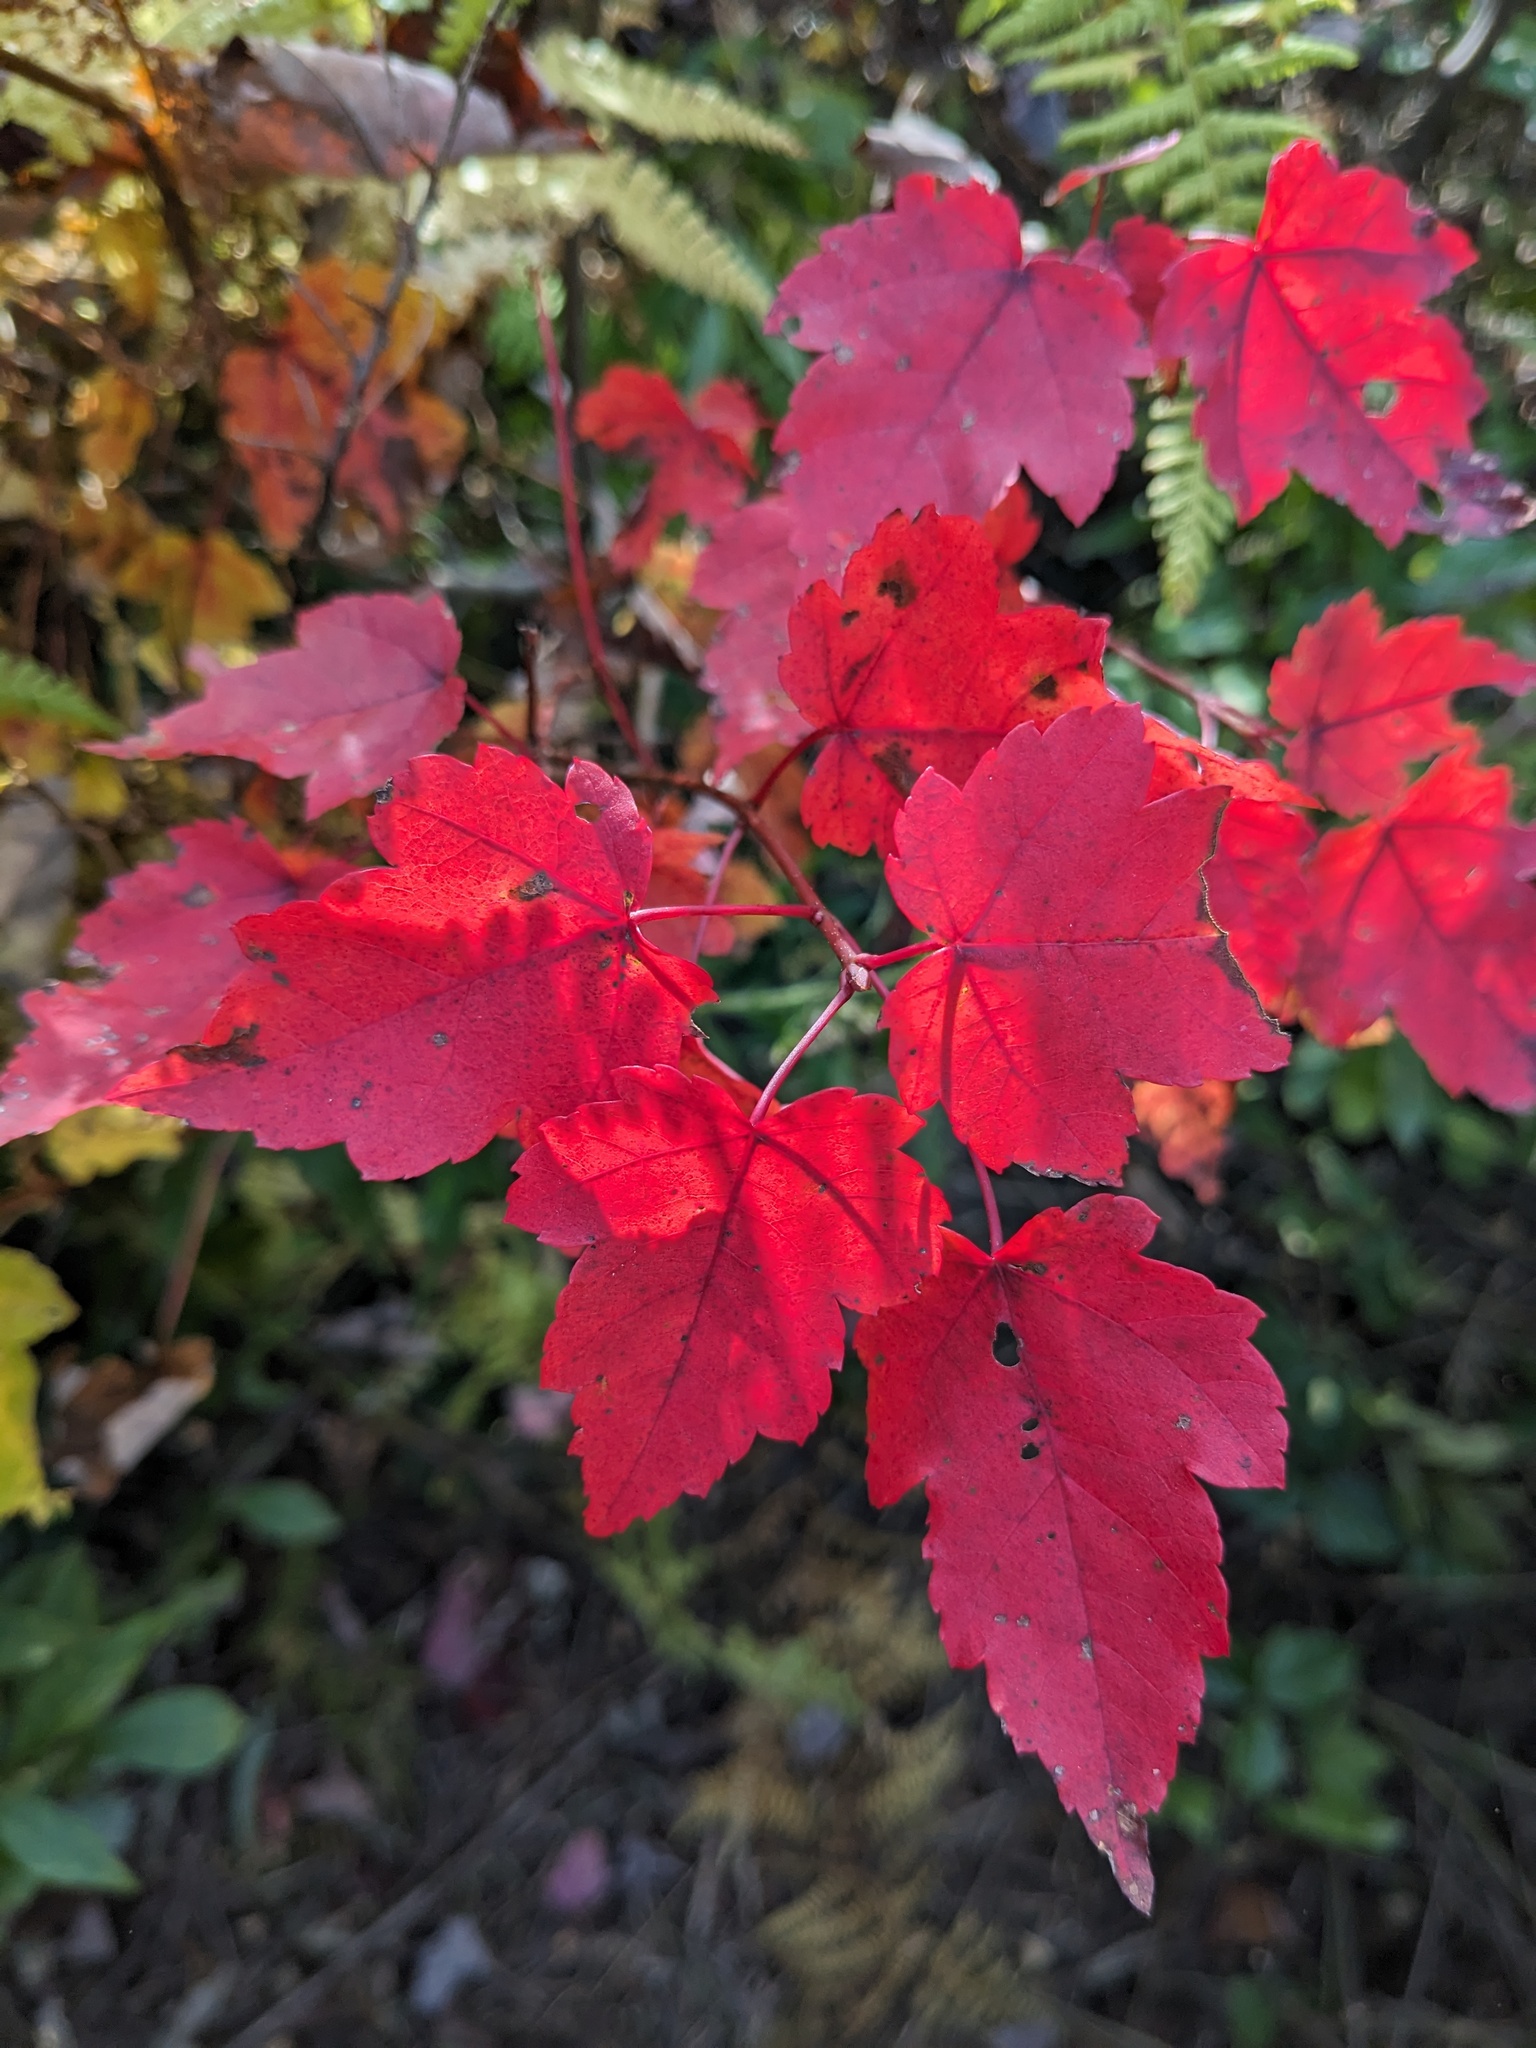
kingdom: Plantae
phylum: Tracheophyta
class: Magnoliopsida
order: Sapindales
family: Sapindaceae
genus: Acer
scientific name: Acer rubrum
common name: Red maple
